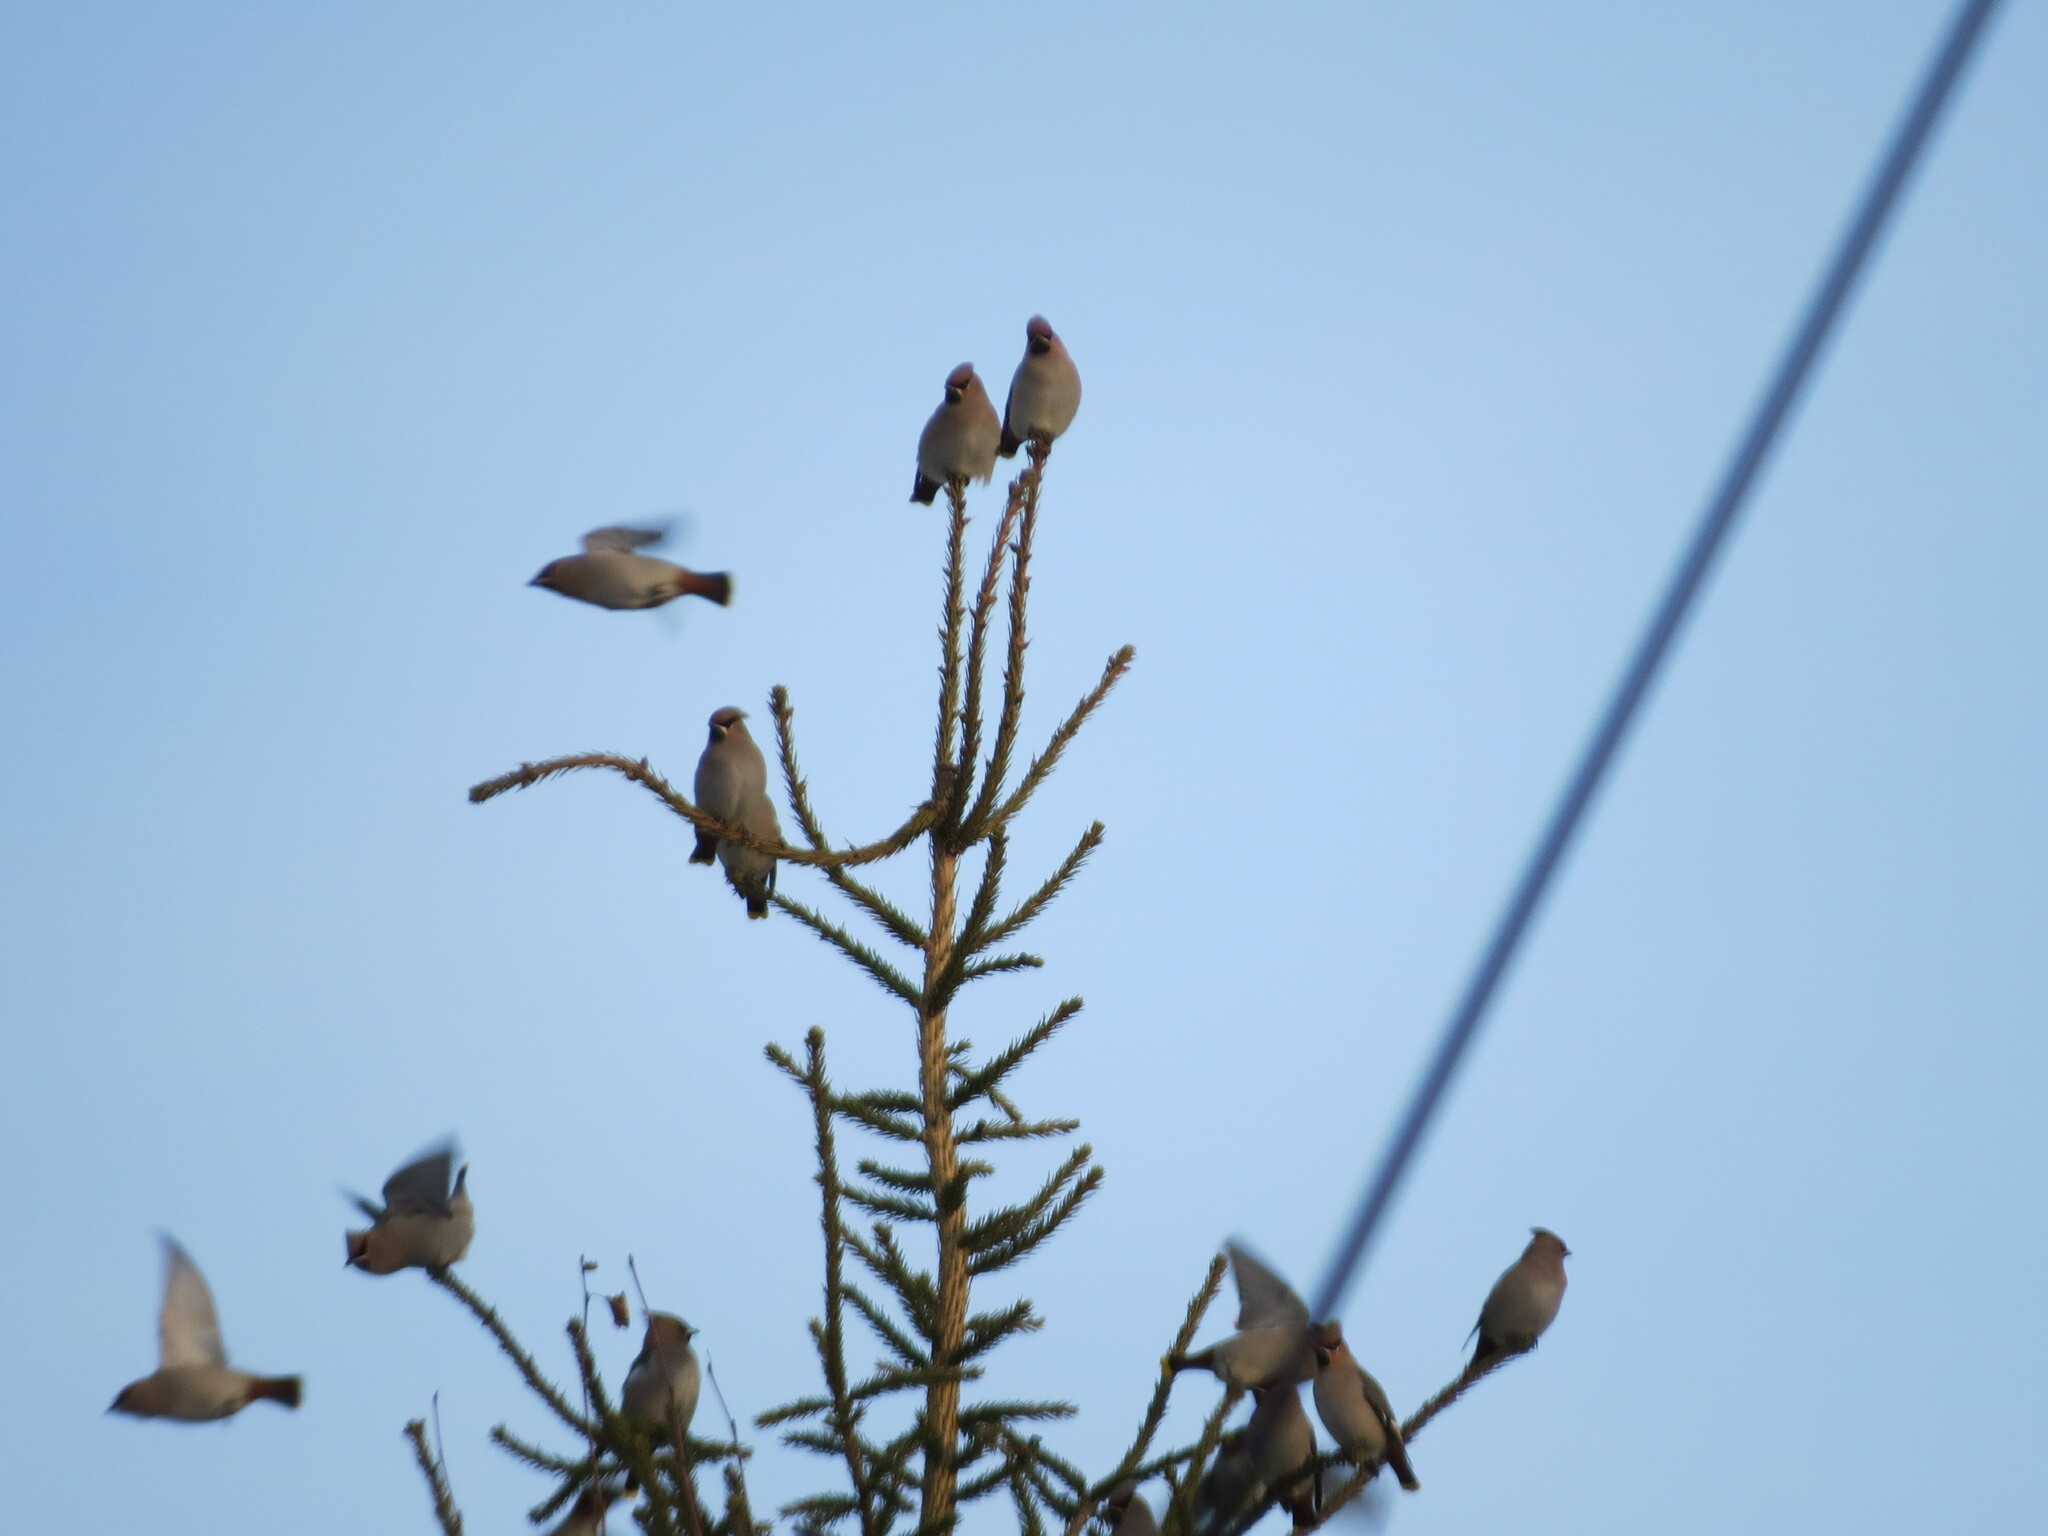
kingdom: Animalia
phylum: Chordata
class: Aves
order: Passeriformes
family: Bombycillidae
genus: Bombycilla
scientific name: Bombycilla garrulus
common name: Bohemian waxwing
